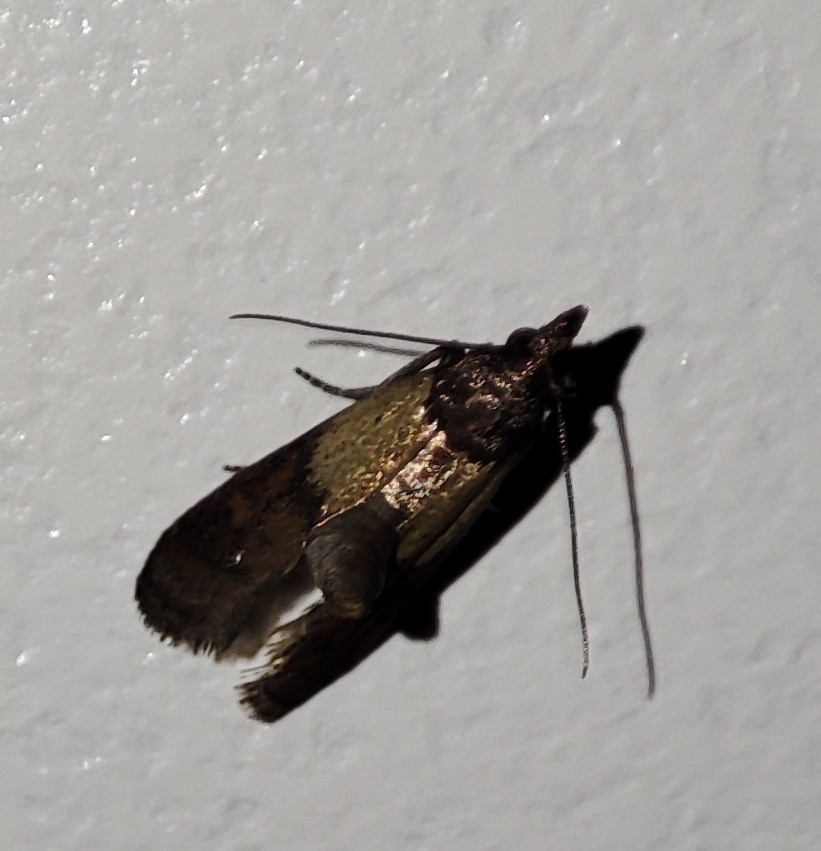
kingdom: Animalia
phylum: Arthropoda
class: Insecta
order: Lepidoptera
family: Pyralidae
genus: Plodia
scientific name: Plodia interpunctella
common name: Indian meal moth
